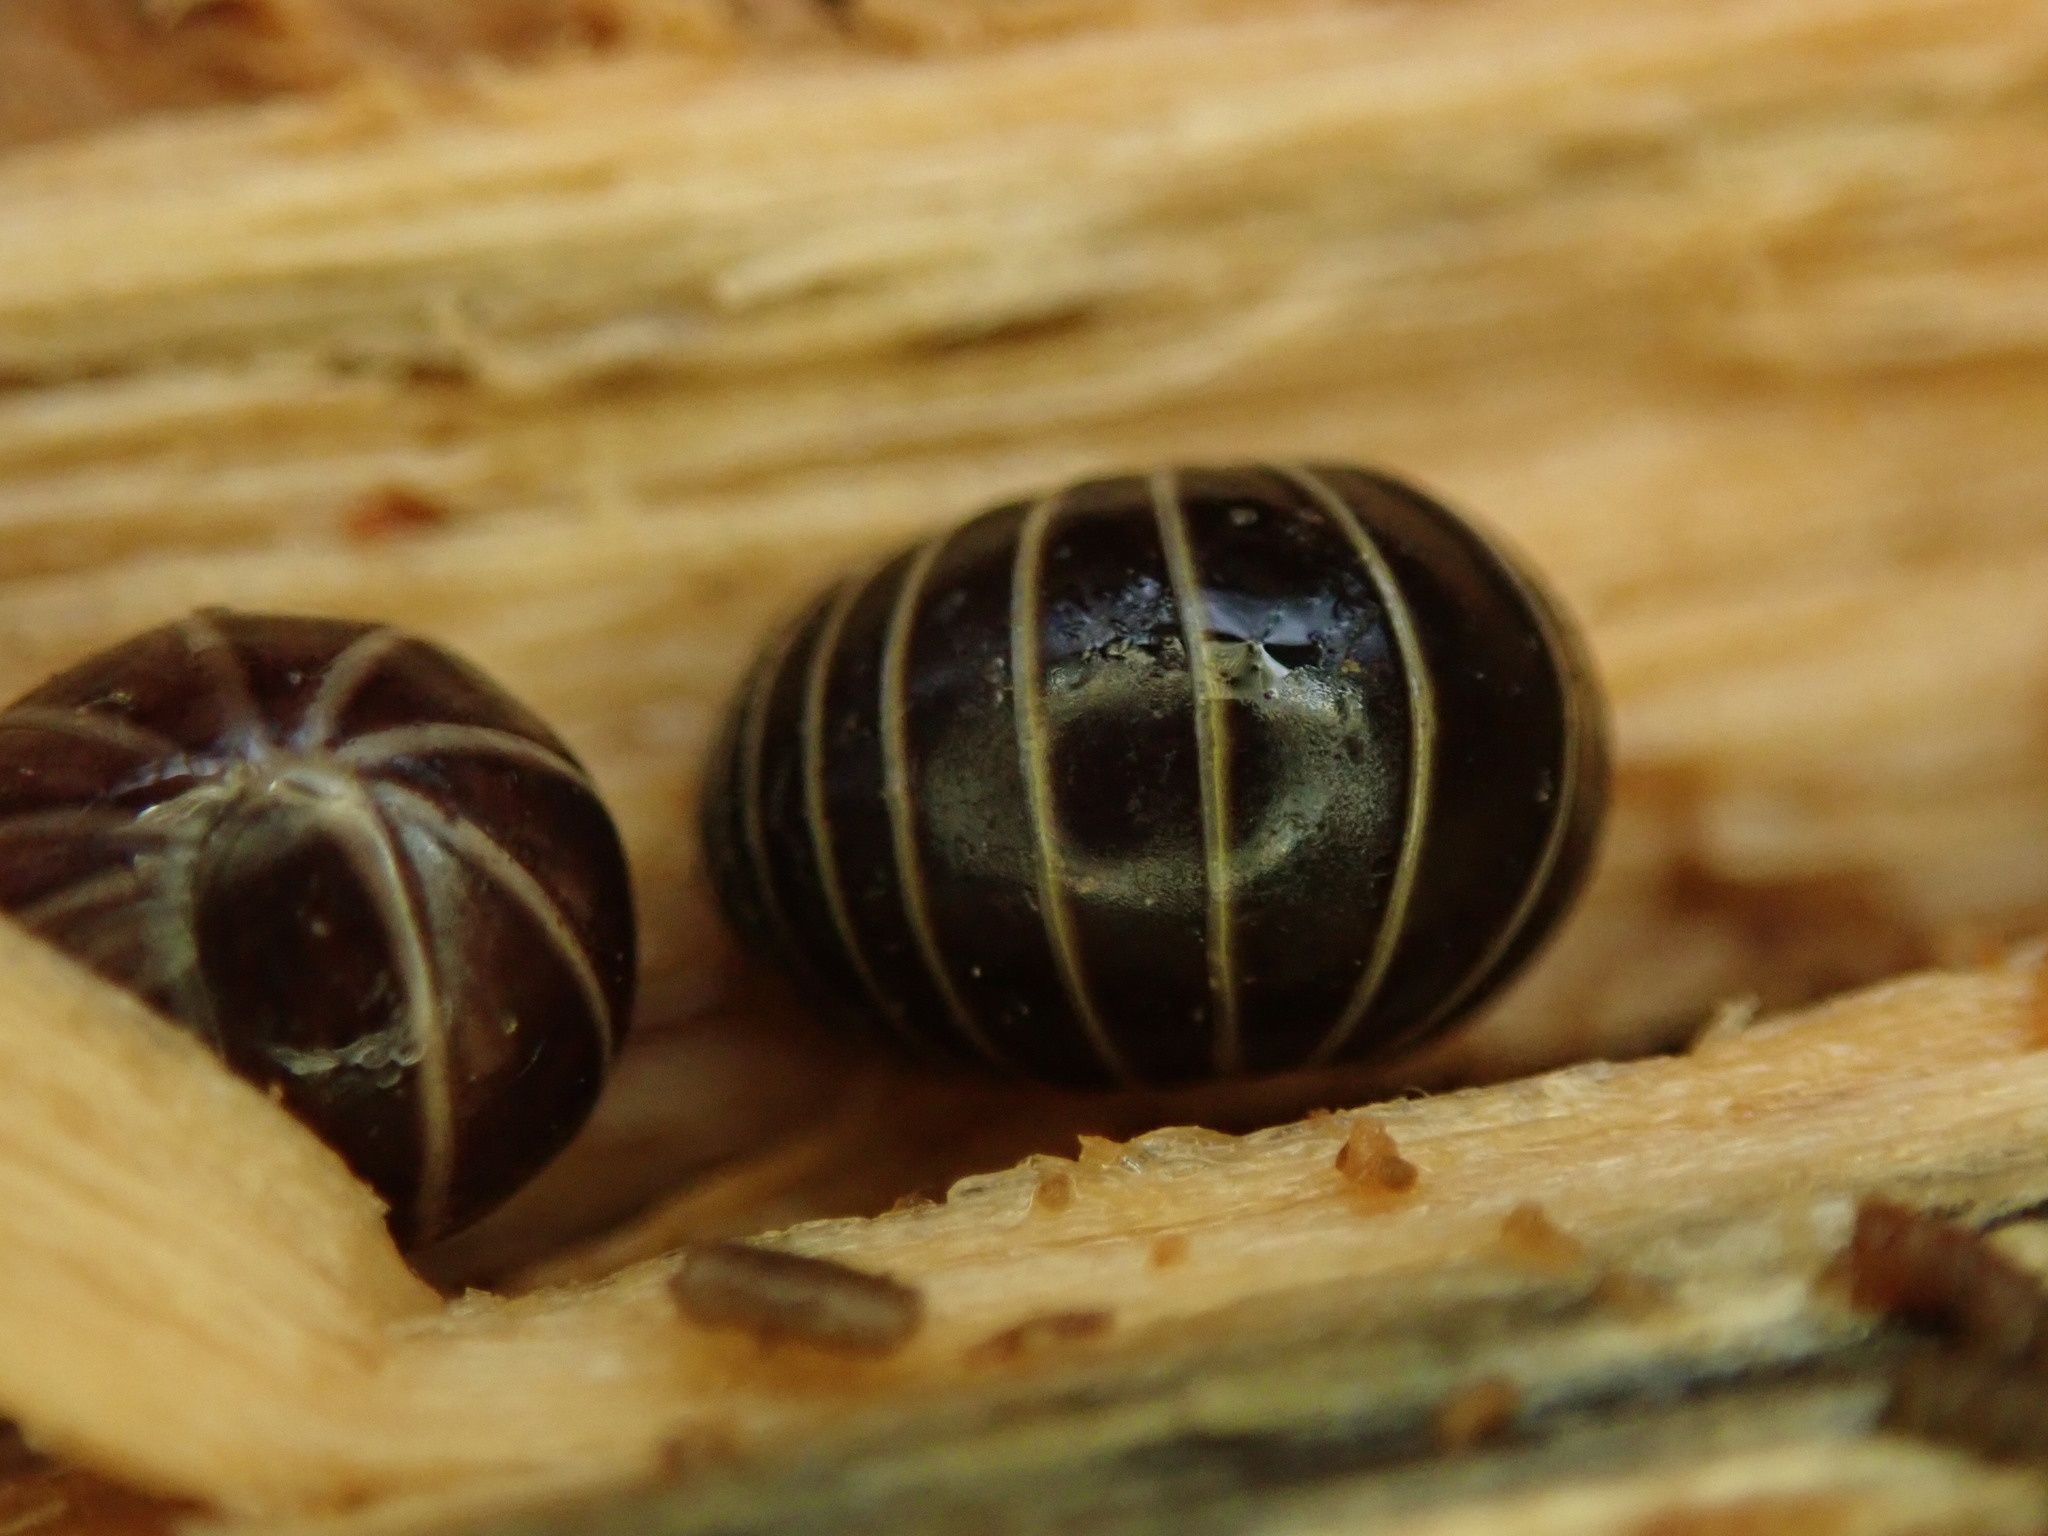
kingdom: Animalia
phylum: Arthropoda
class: Diplopoda
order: Glomerida
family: Glomeridae
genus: Glomeris
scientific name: Glomeris marginata
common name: Bordered pill millipede
